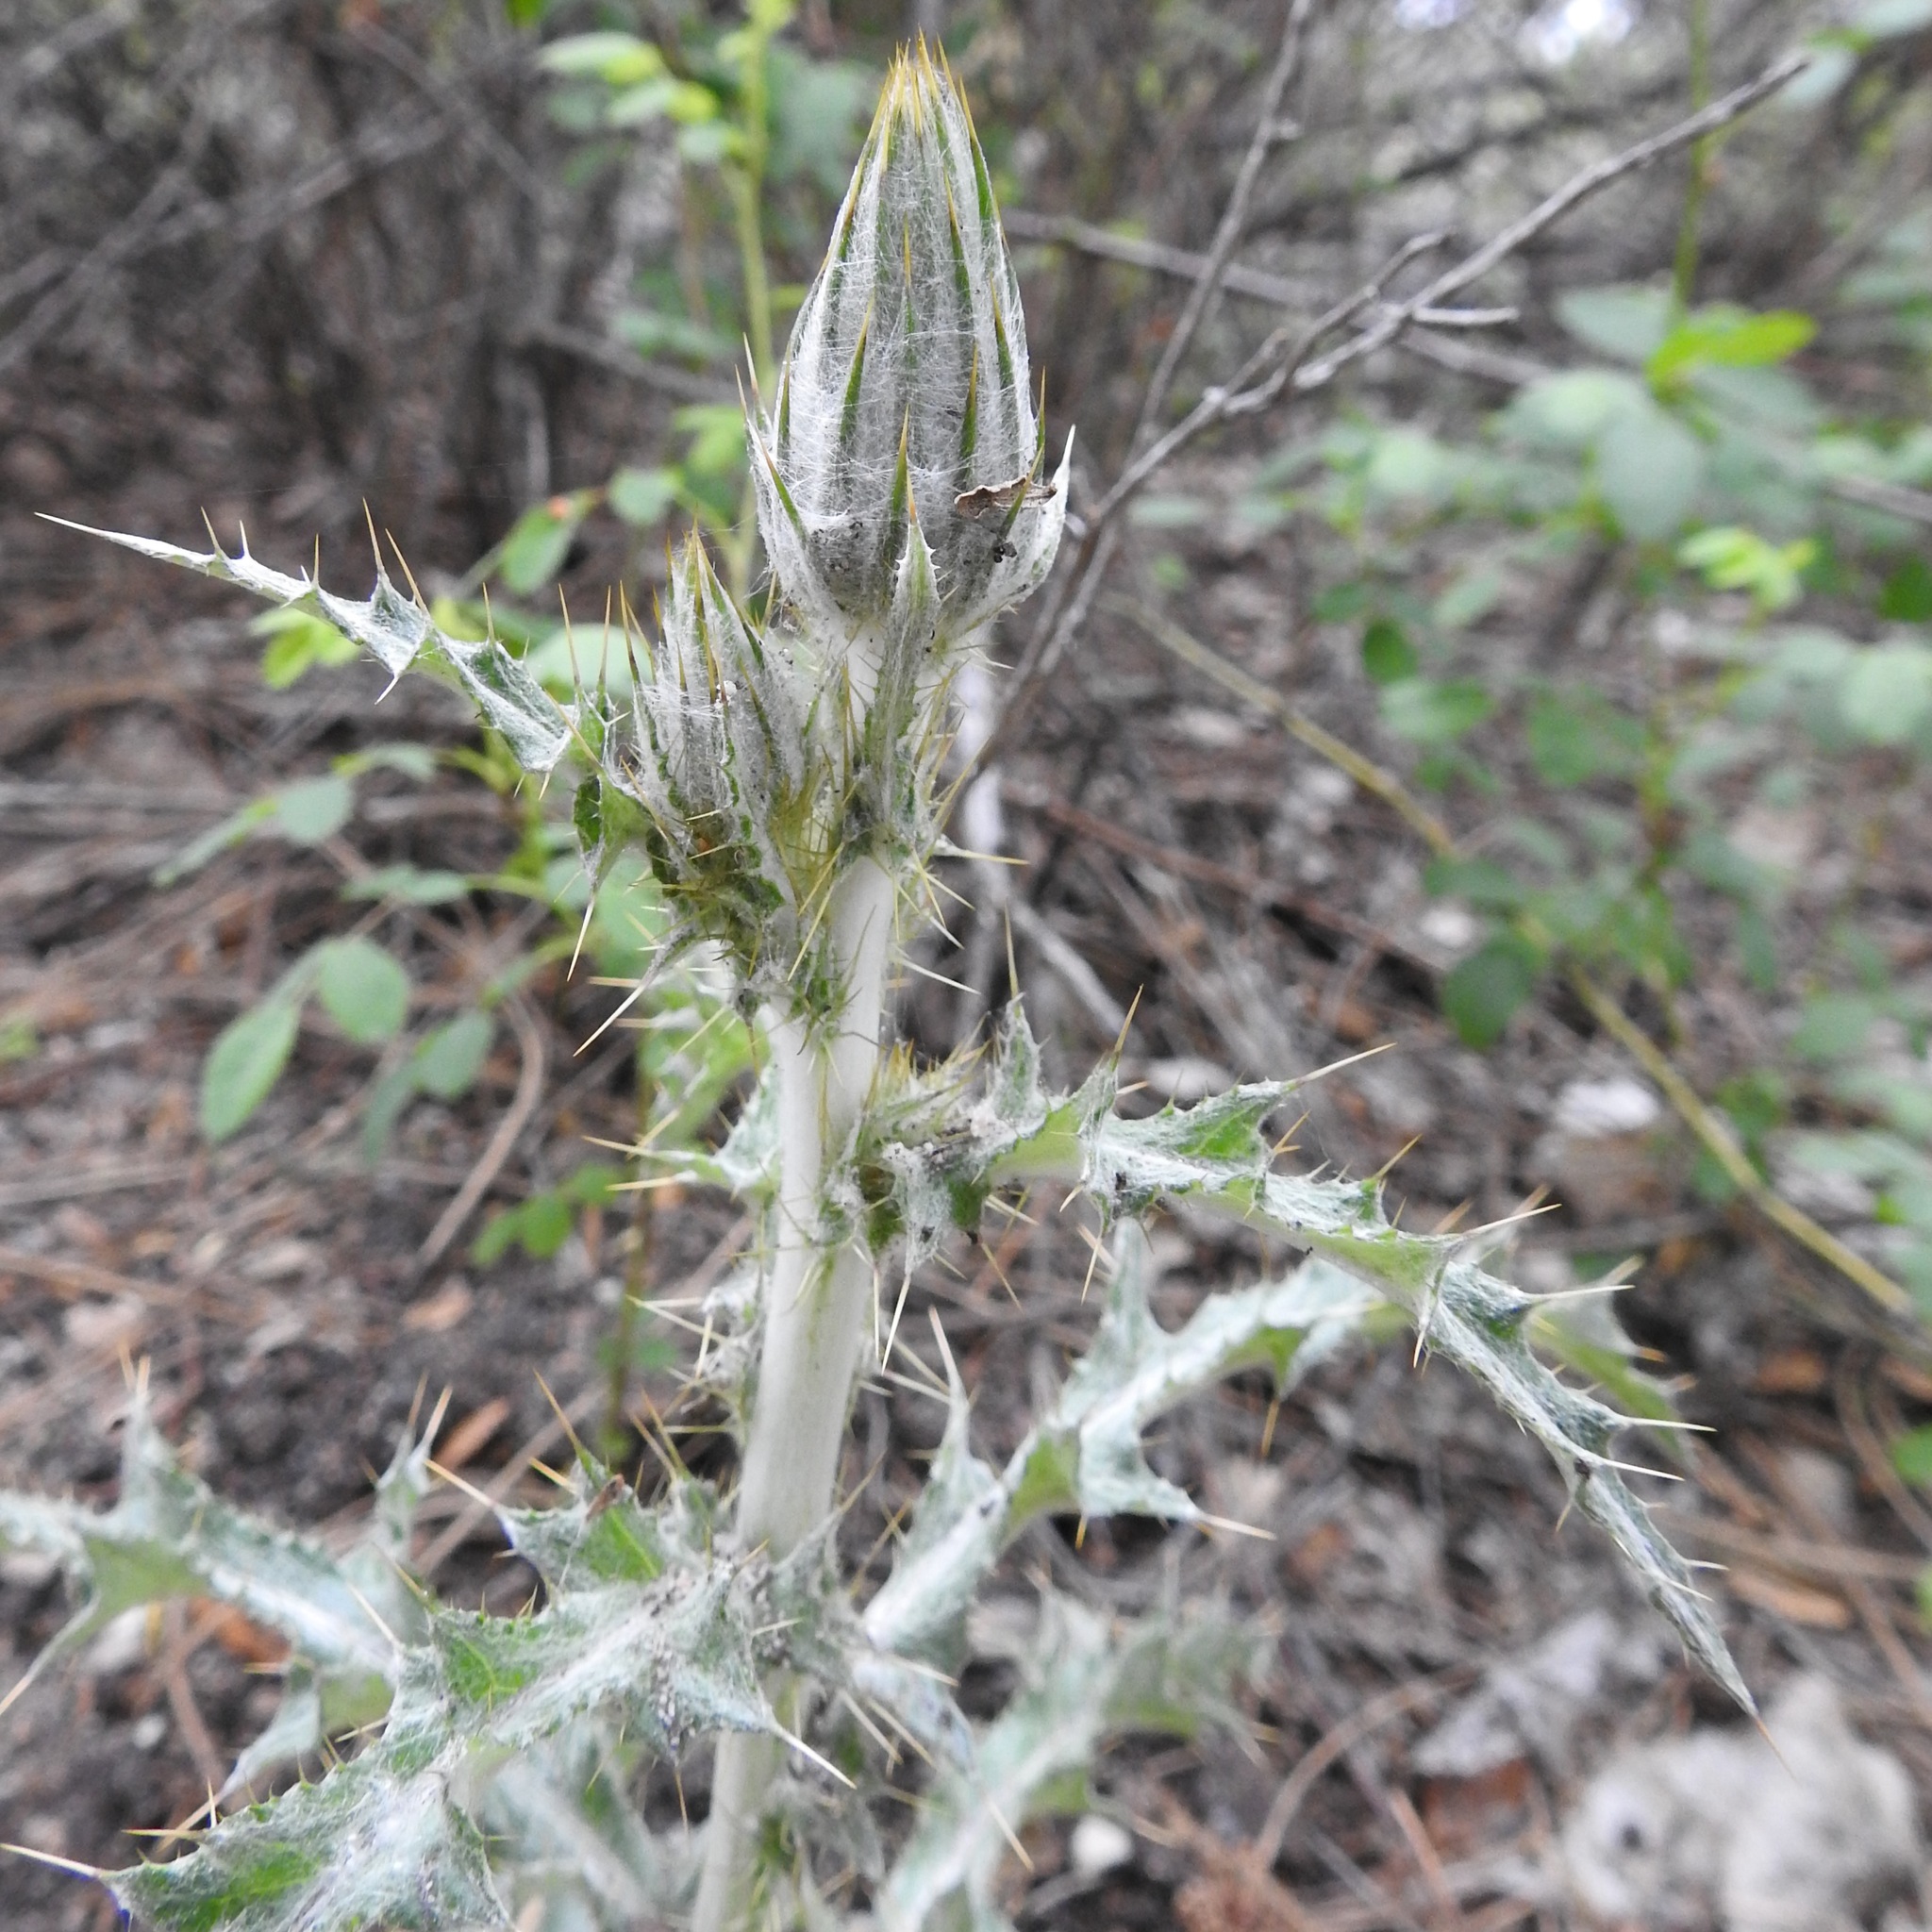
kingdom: Plantae
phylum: Tracheophyta
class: Magnoliopsida
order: Asterales
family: Asteraceae
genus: Cirsium
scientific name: Cirsium occidentale
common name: Western thistle
